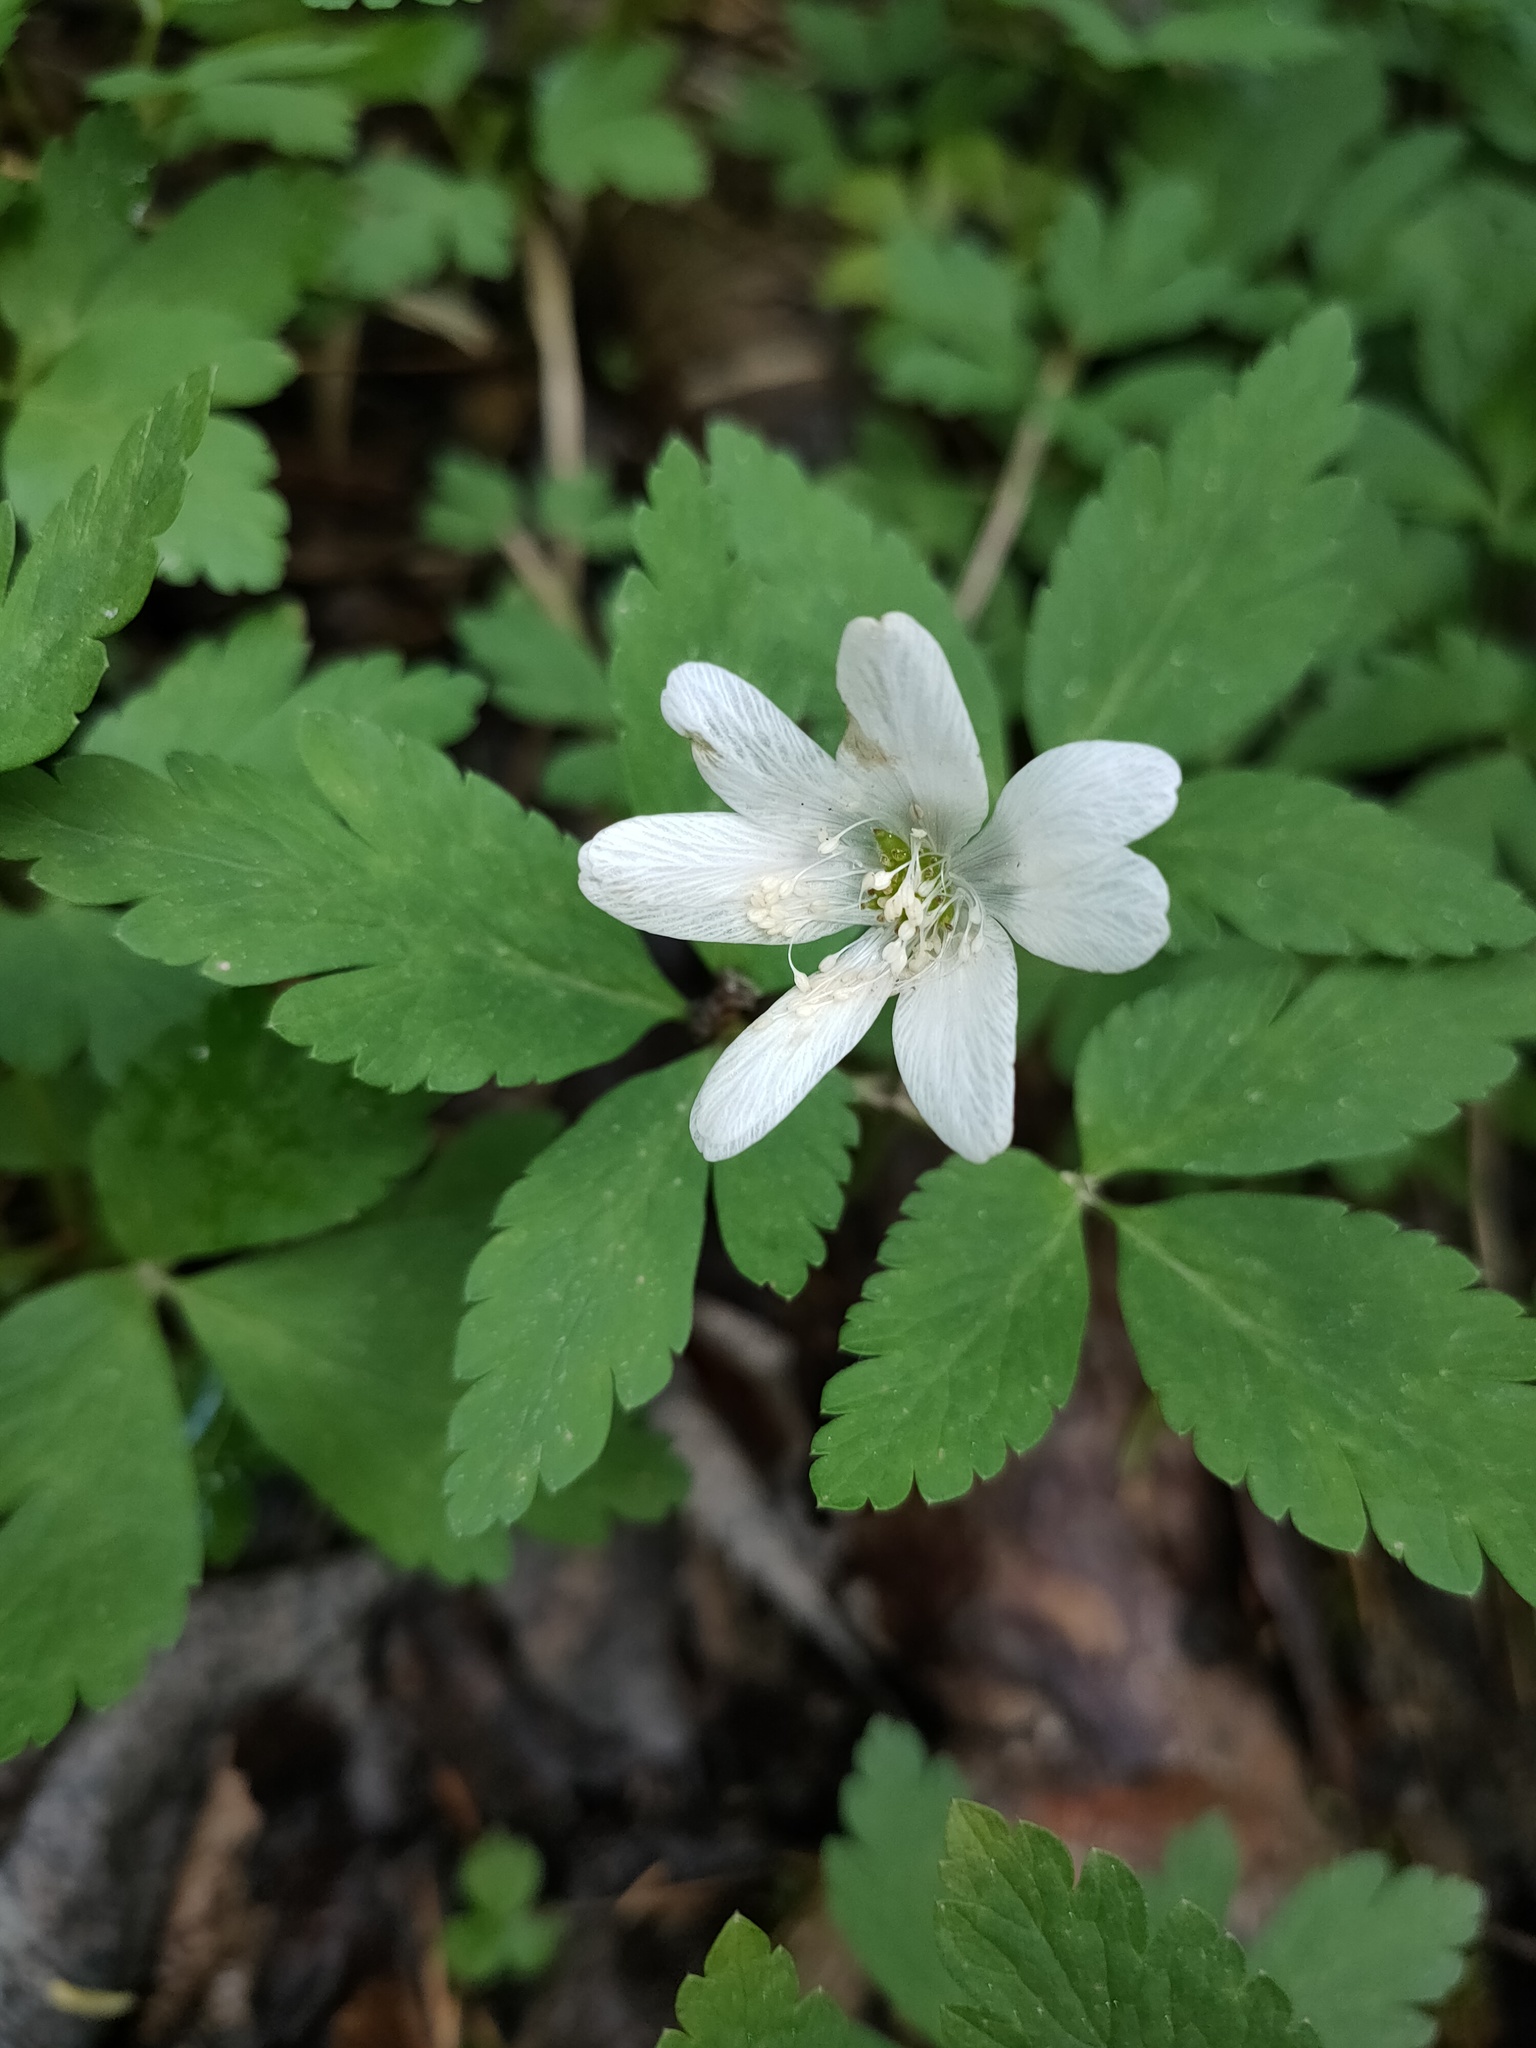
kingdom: Plantae
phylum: Tracheophyta
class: Magnoliopsida
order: Ranunculales
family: Ranunculaceae
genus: Anemone
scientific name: Anemone altaica
